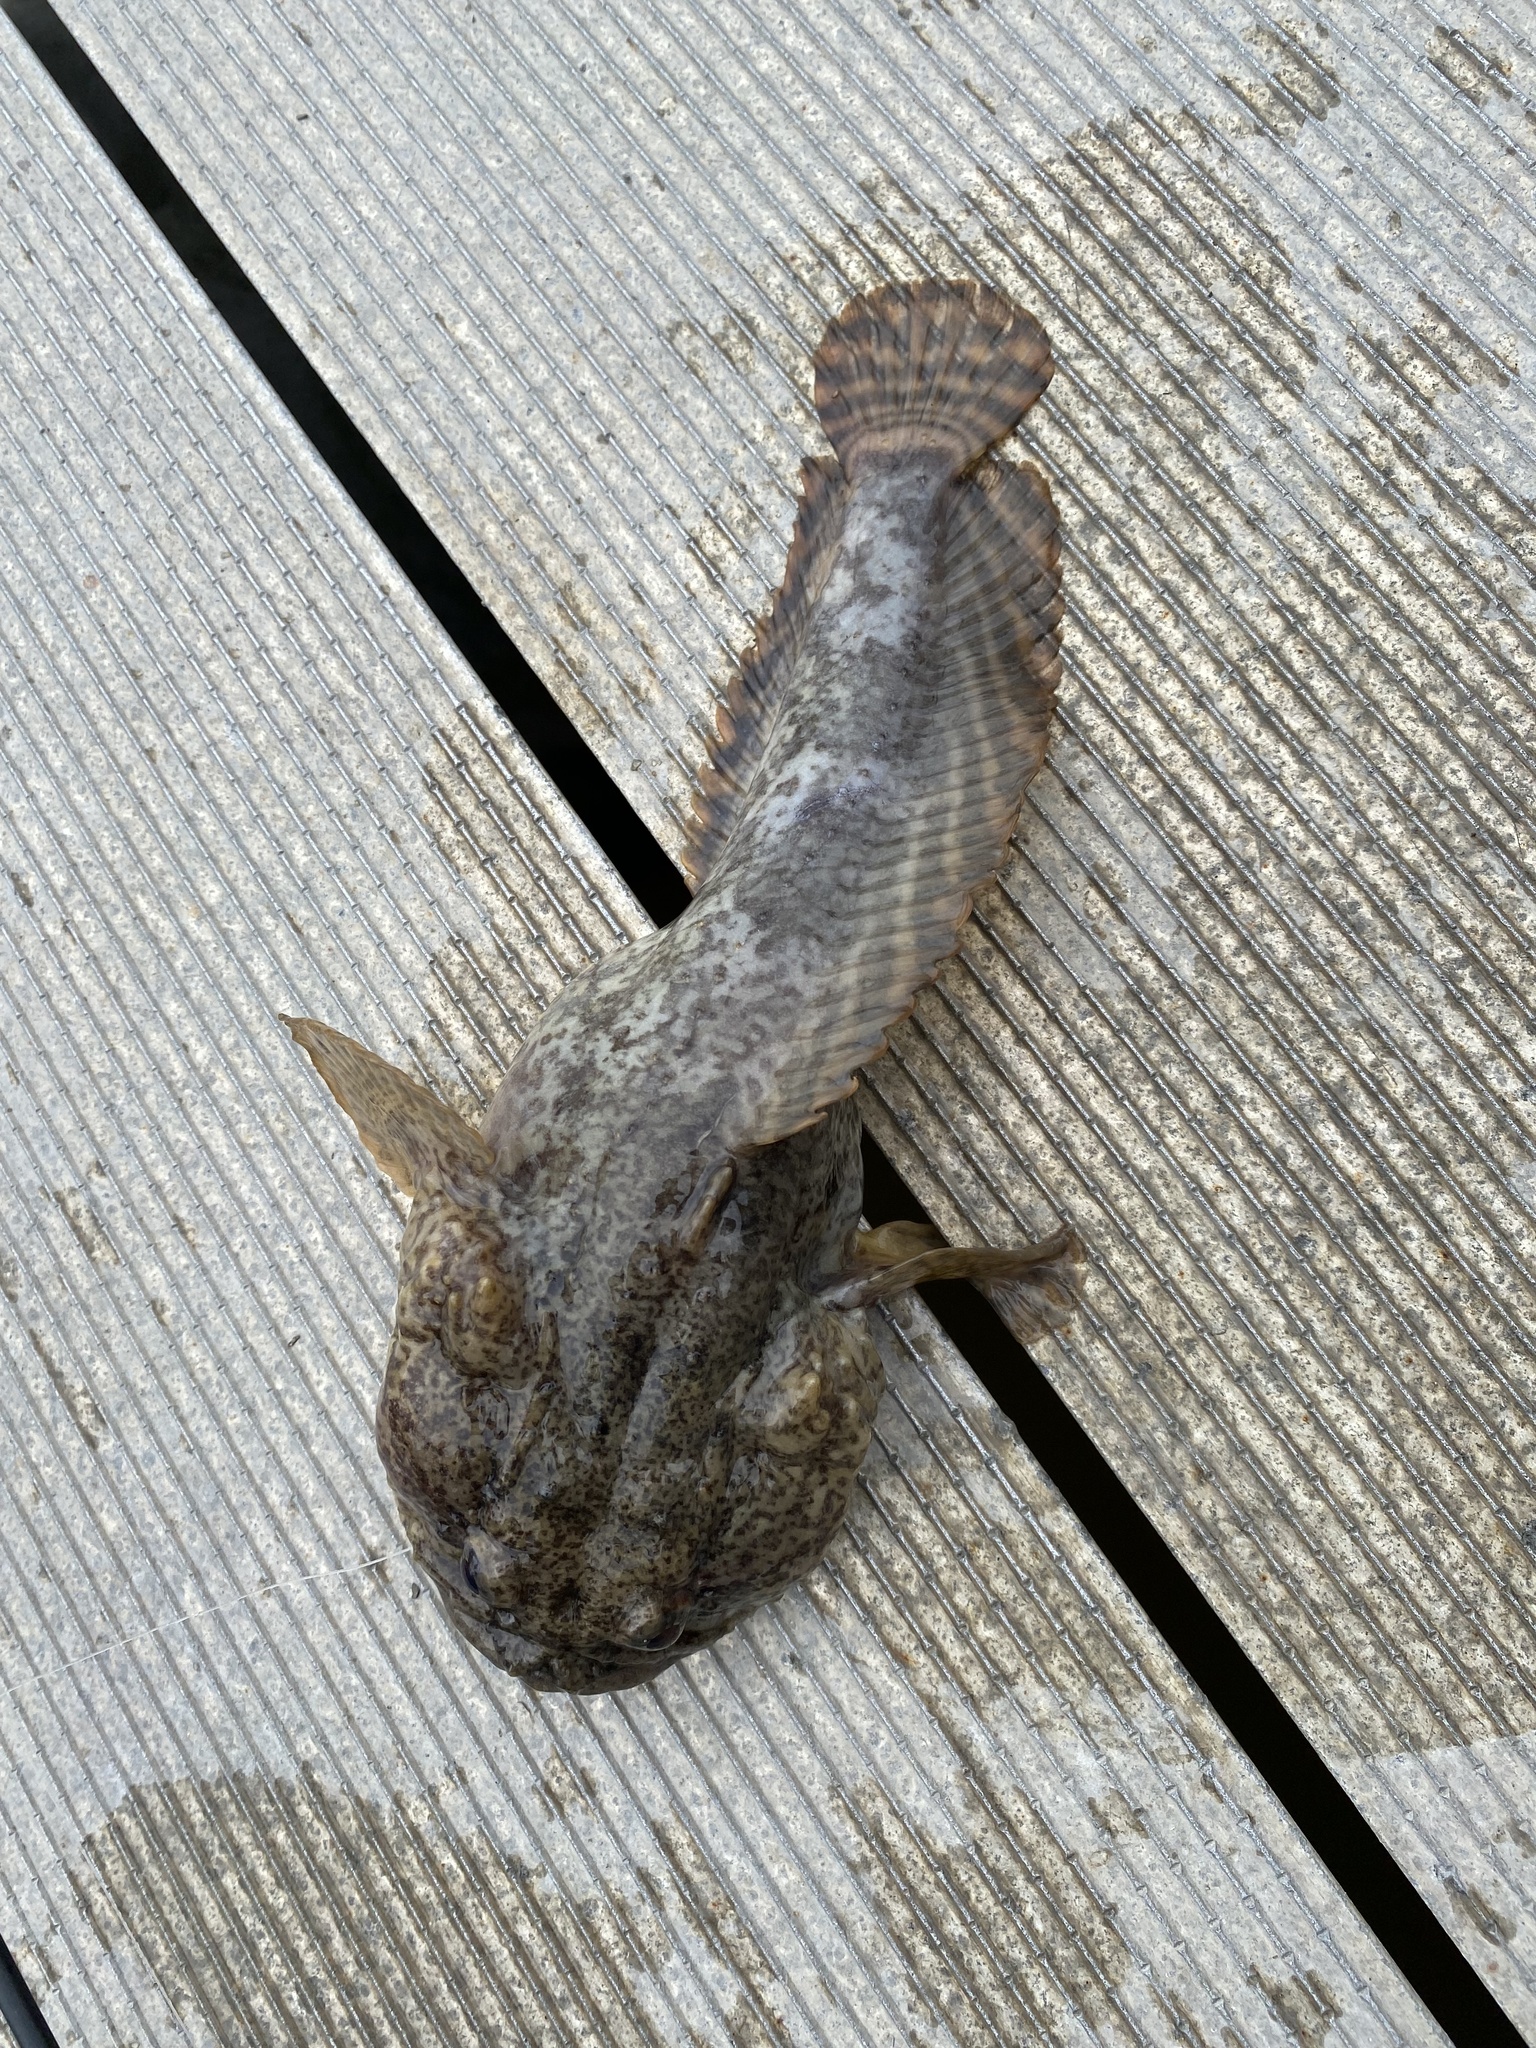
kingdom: Animalia
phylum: Chordata
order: Batrachoidiformes
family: Batrachoididae
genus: Opsanus
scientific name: Opsanus tau
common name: Oyster toadfish
